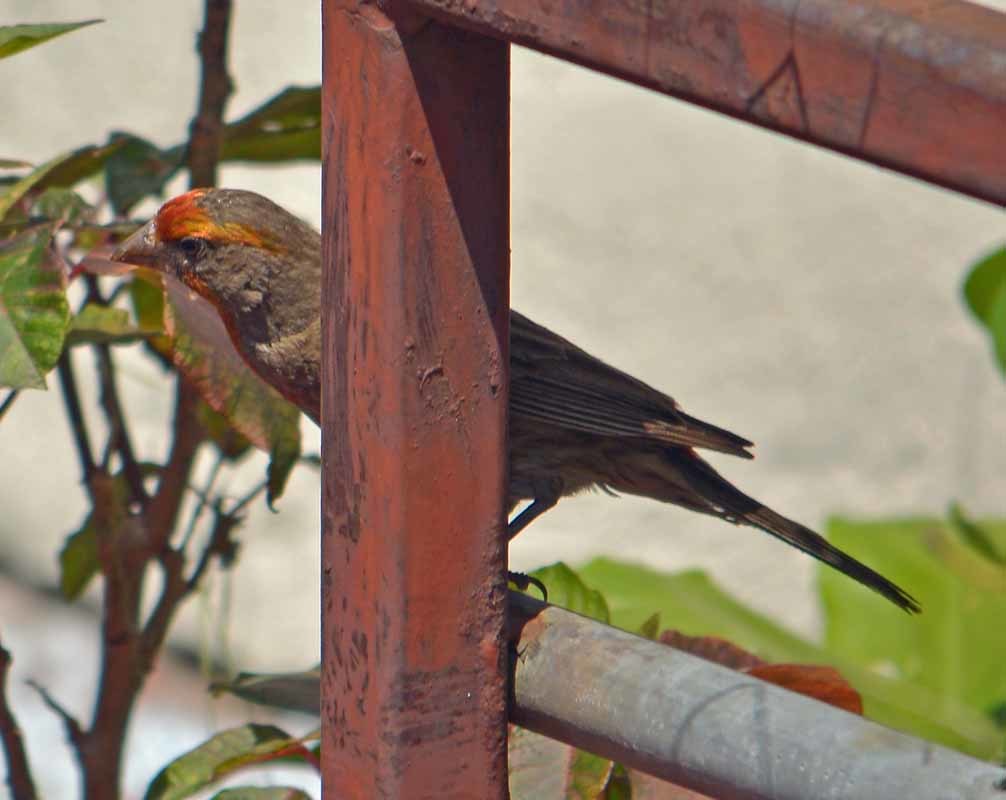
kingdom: Animalia
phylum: Chordata
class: Aves
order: Passeriformes
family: Fringillidae
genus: Haemorhous
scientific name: Haemorhous mexicanus
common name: House finch
